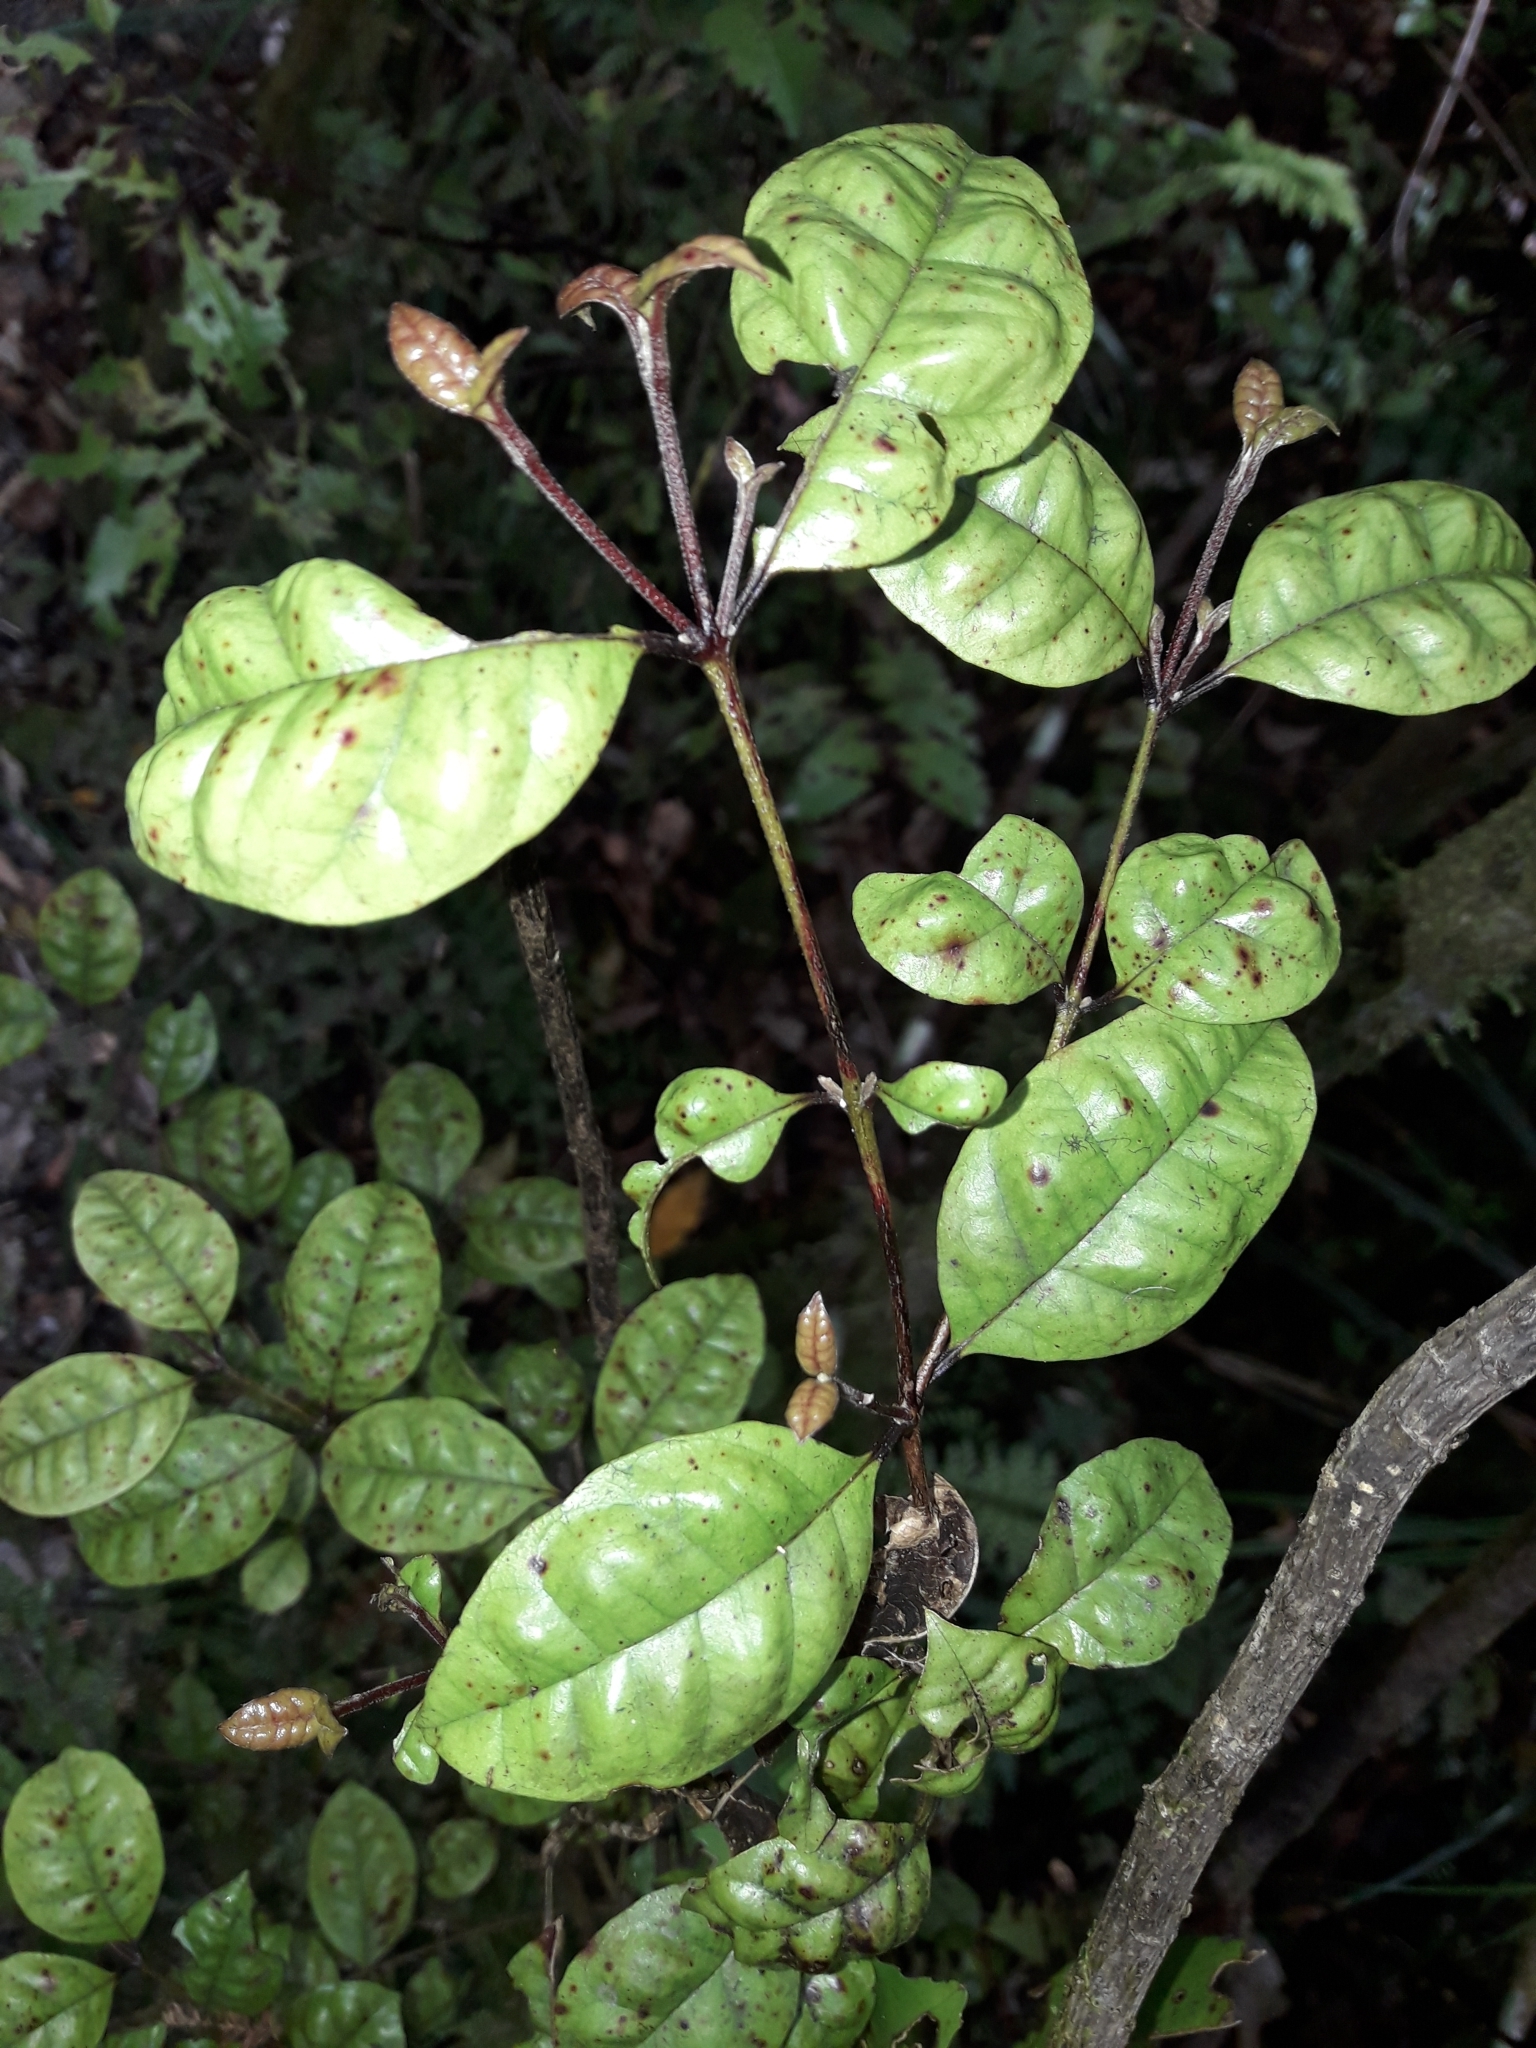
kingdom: Plantae
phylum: Tracheophyta
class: Magnoliopsida
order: Myrtales
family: Myrtaceae
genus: Lophomyrtus
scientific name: Lophomyrtus bullata
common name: Rama rama
